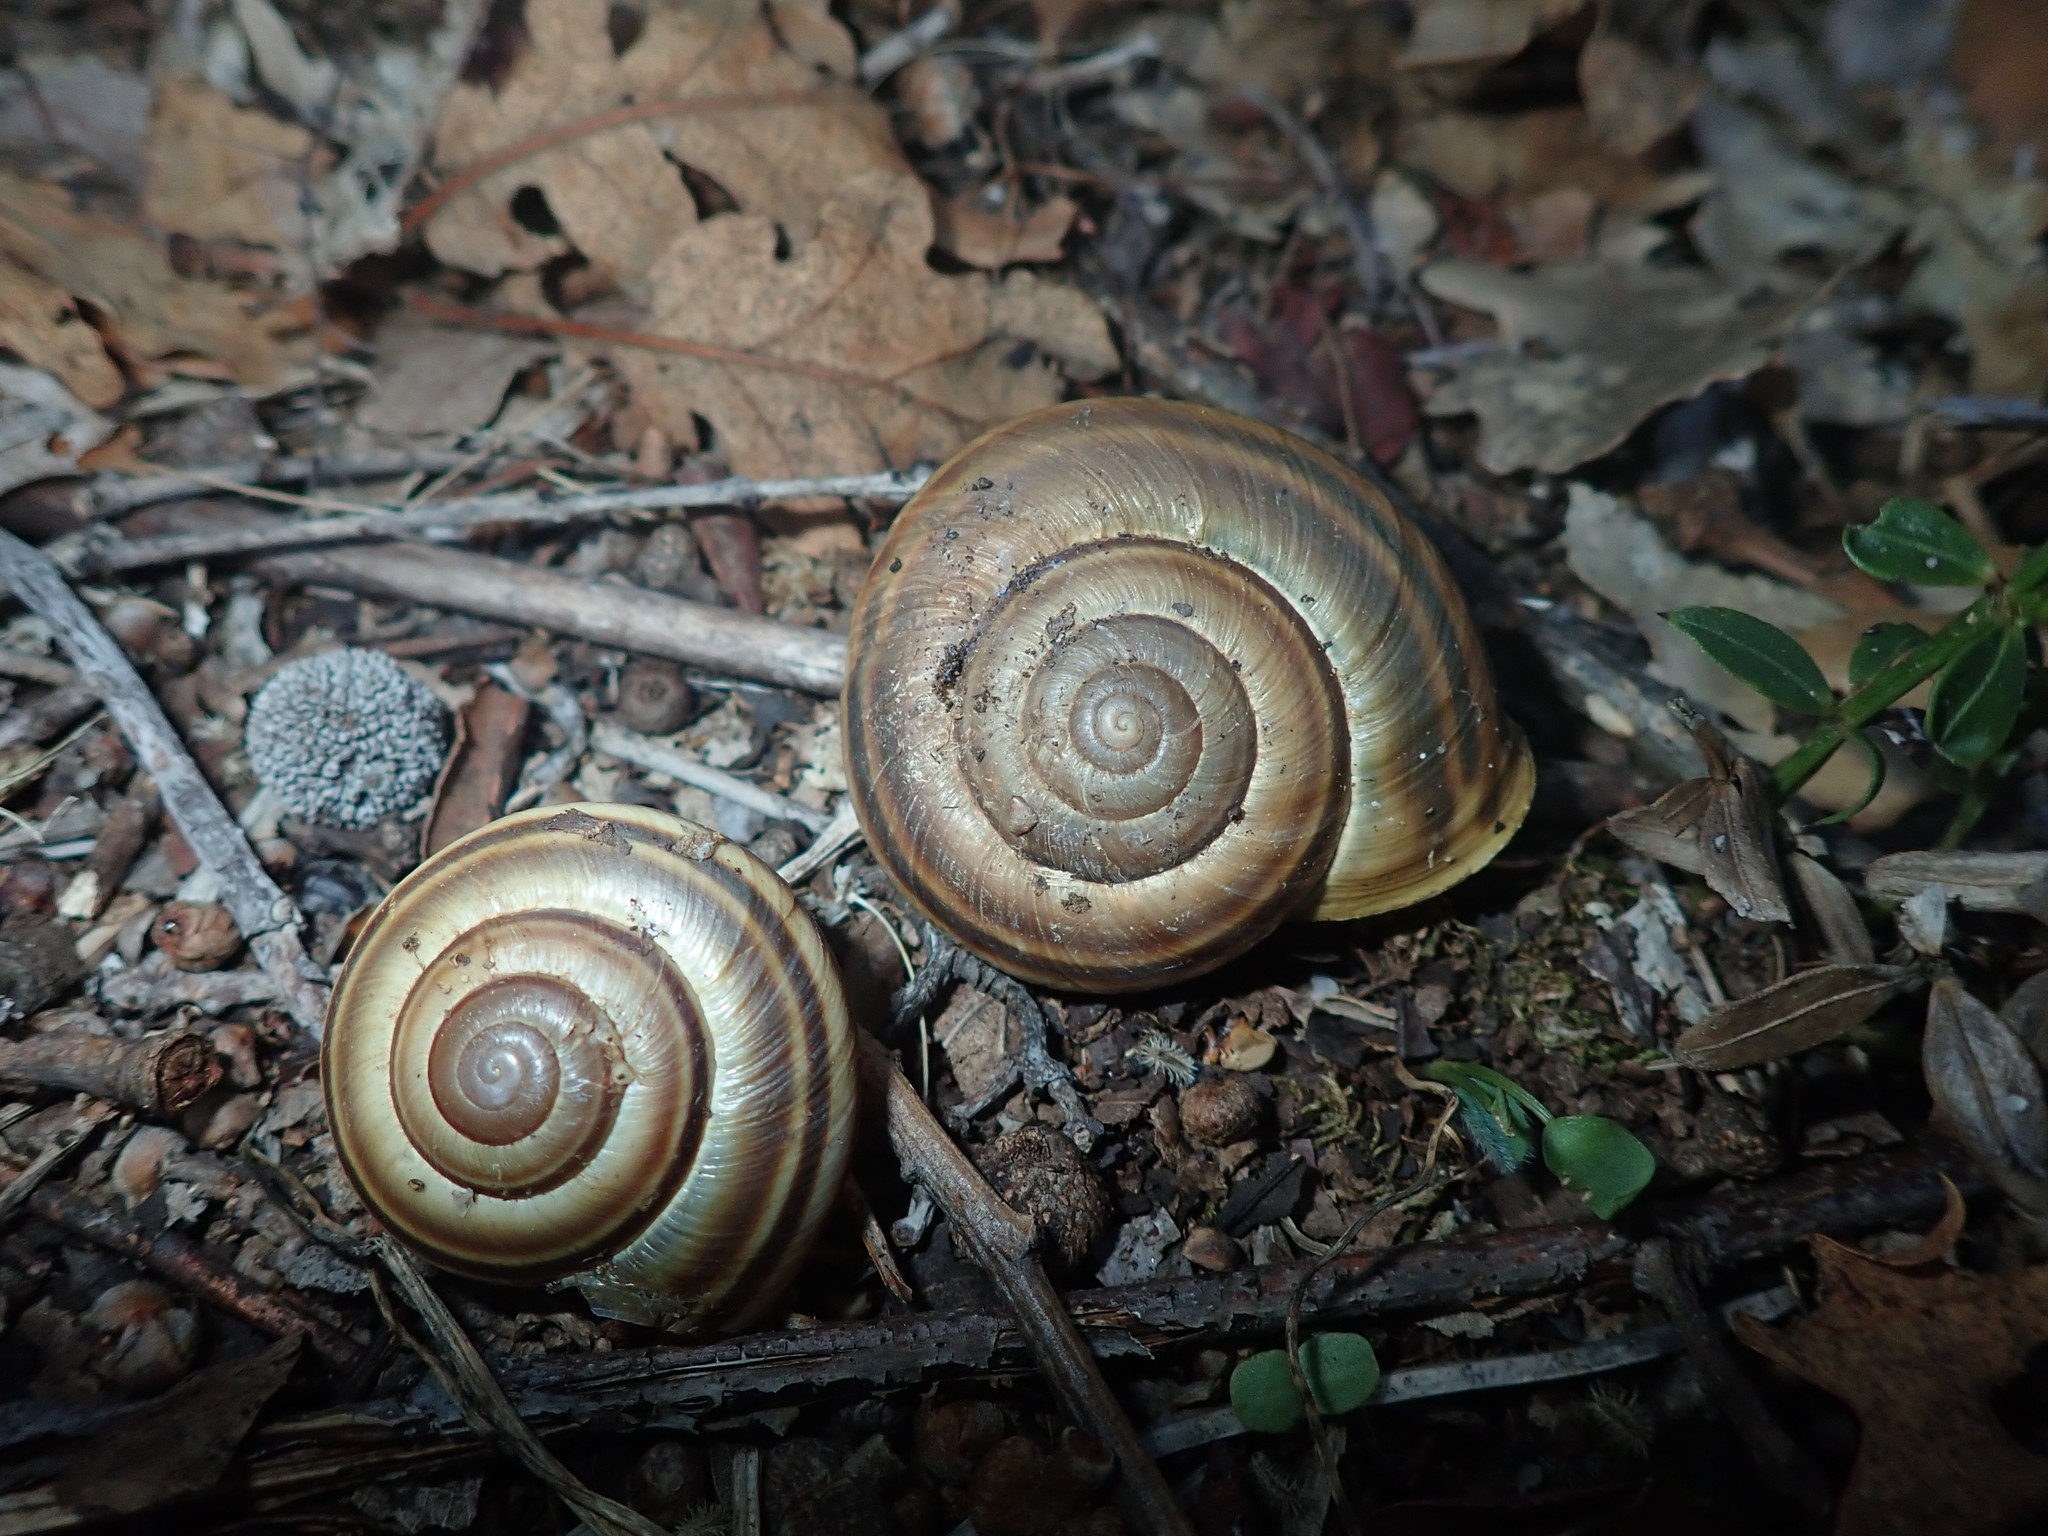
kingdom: Animalia
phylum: Mollusca
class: Gastropoda
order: Stylommatophora
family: Helicidae
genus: Dinarica
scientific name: Dinarica pouzolzii
